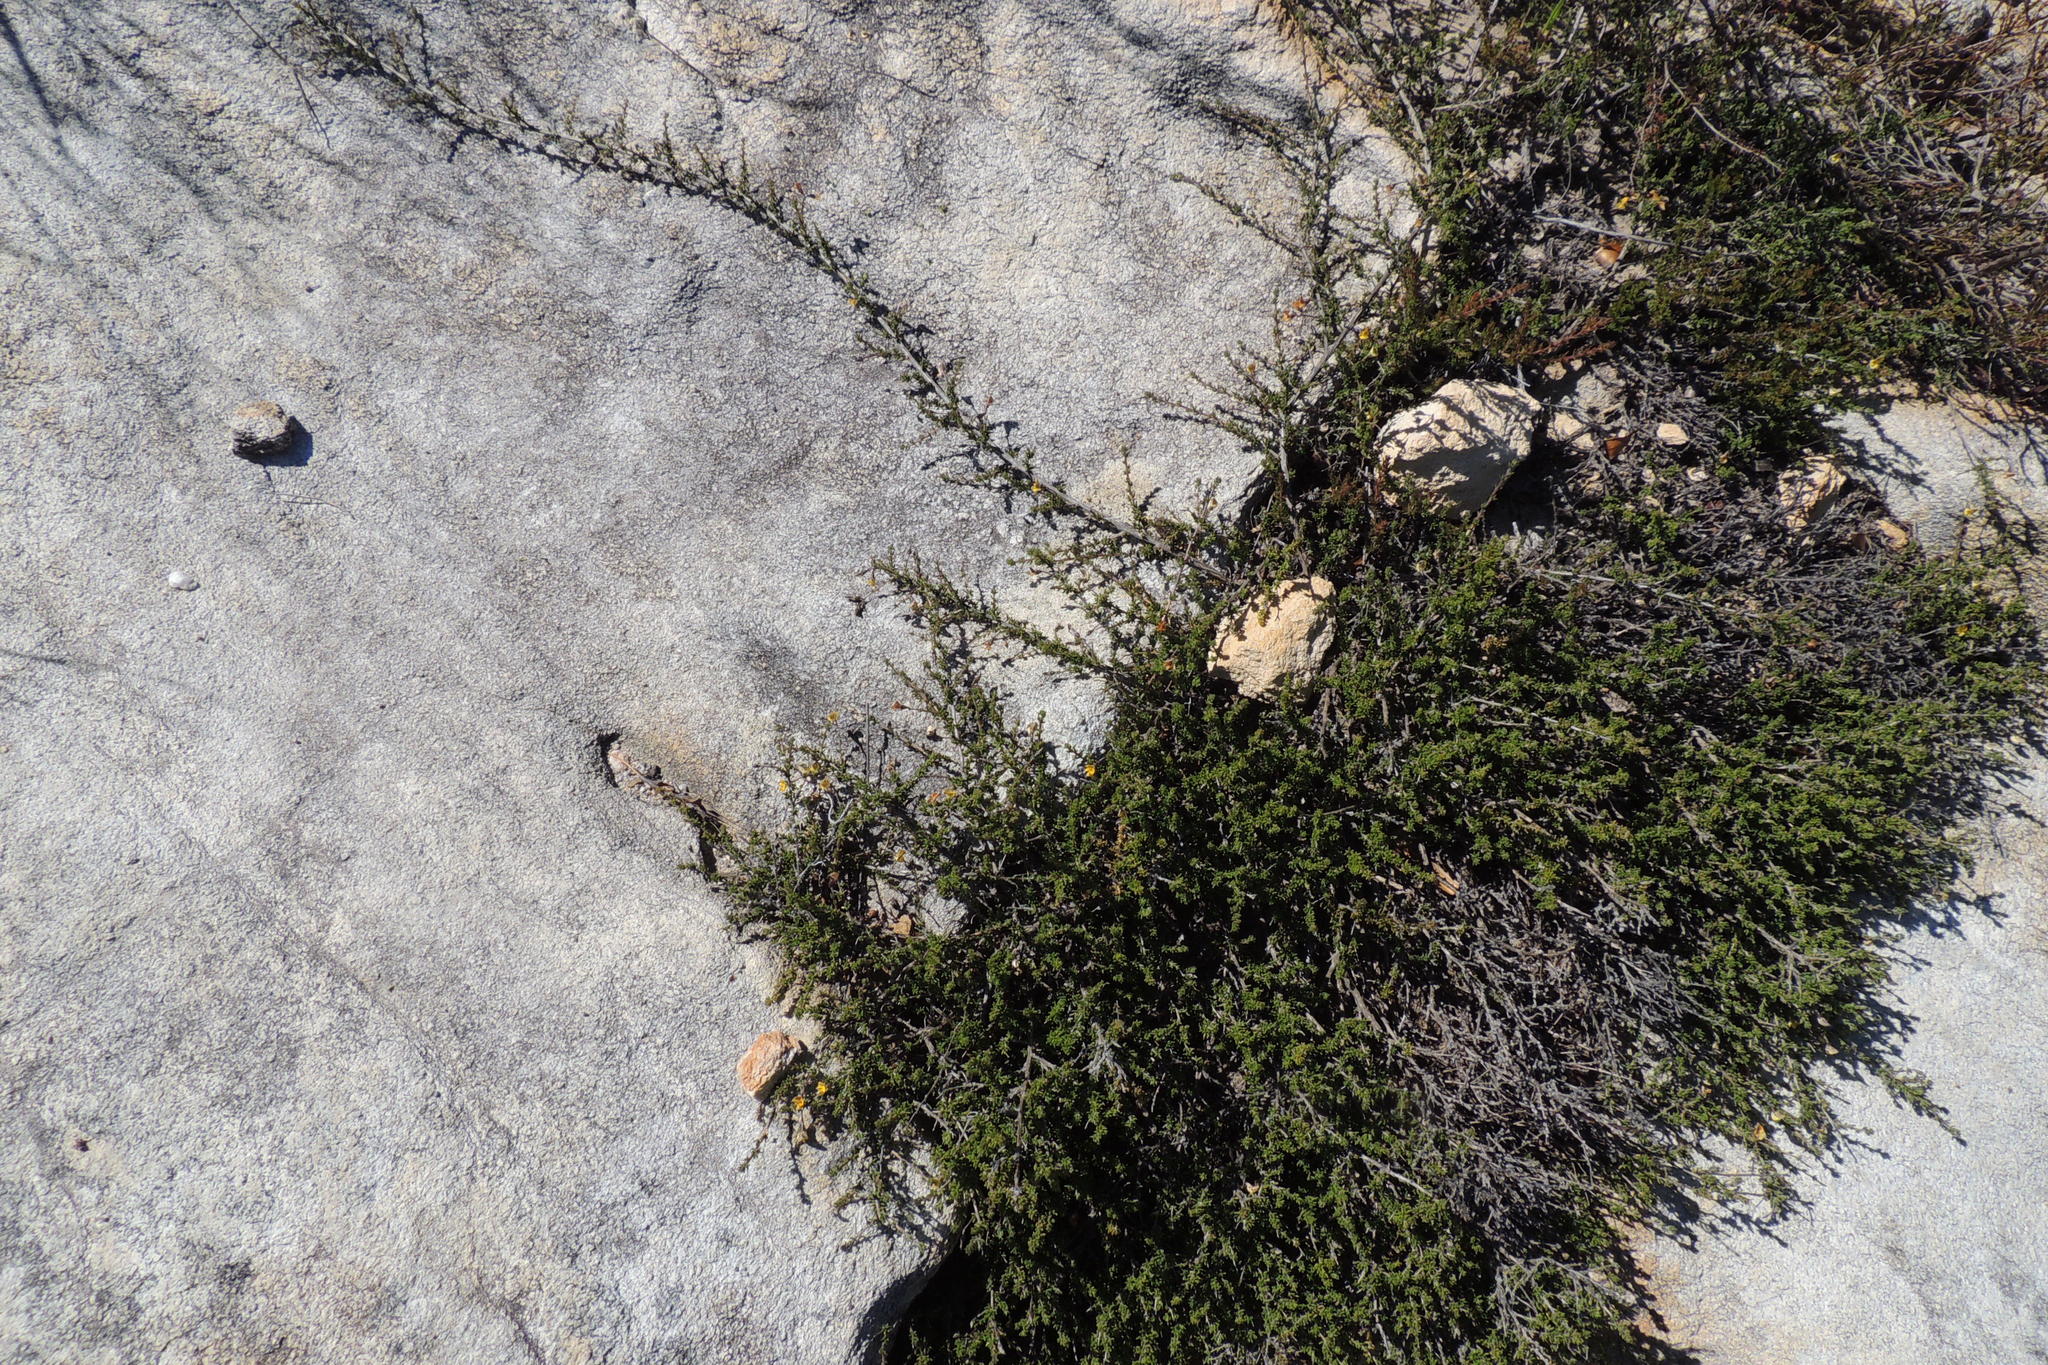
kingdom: Plantae
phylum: Tracheophyta
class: Magnoliopsida
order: Fabales
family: Fabaceae
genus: Aspalathus
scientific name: Aspalathus biflora
